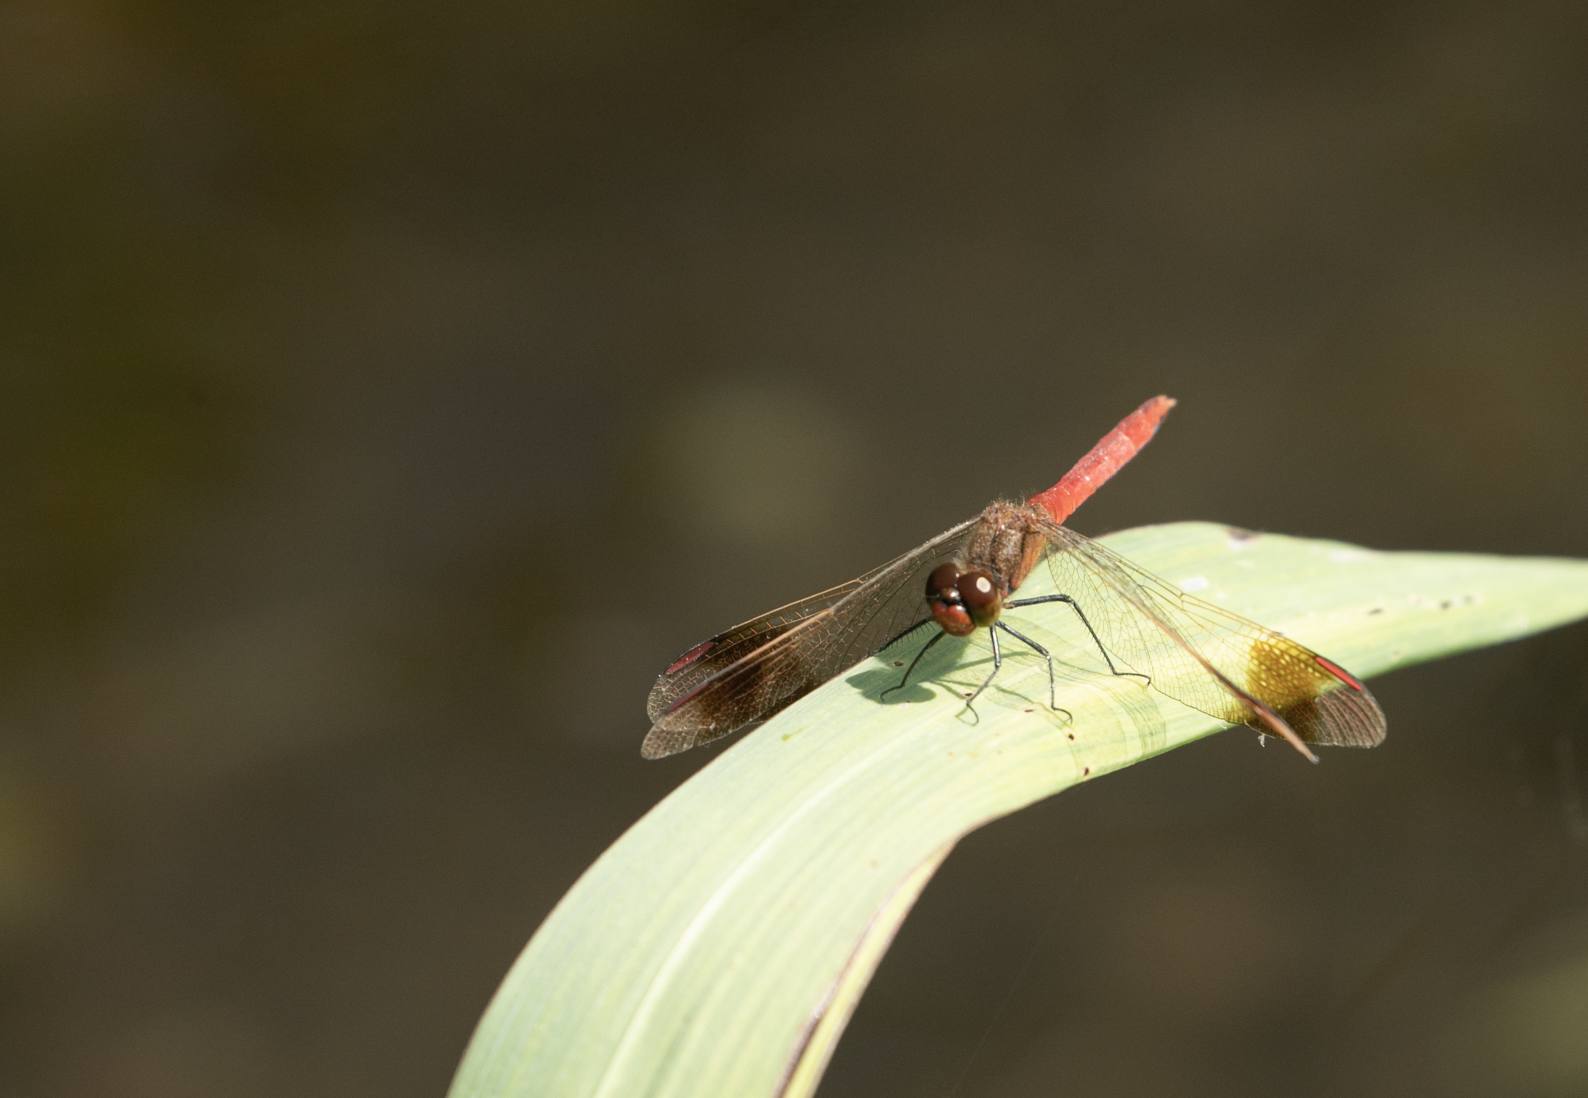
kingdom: Animalia
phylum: Arthropoda
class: Insecta
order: Odonata
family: Libellulidae
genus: Sympetrum
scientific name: Sympetrum pedemontanum
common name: Banded darter
